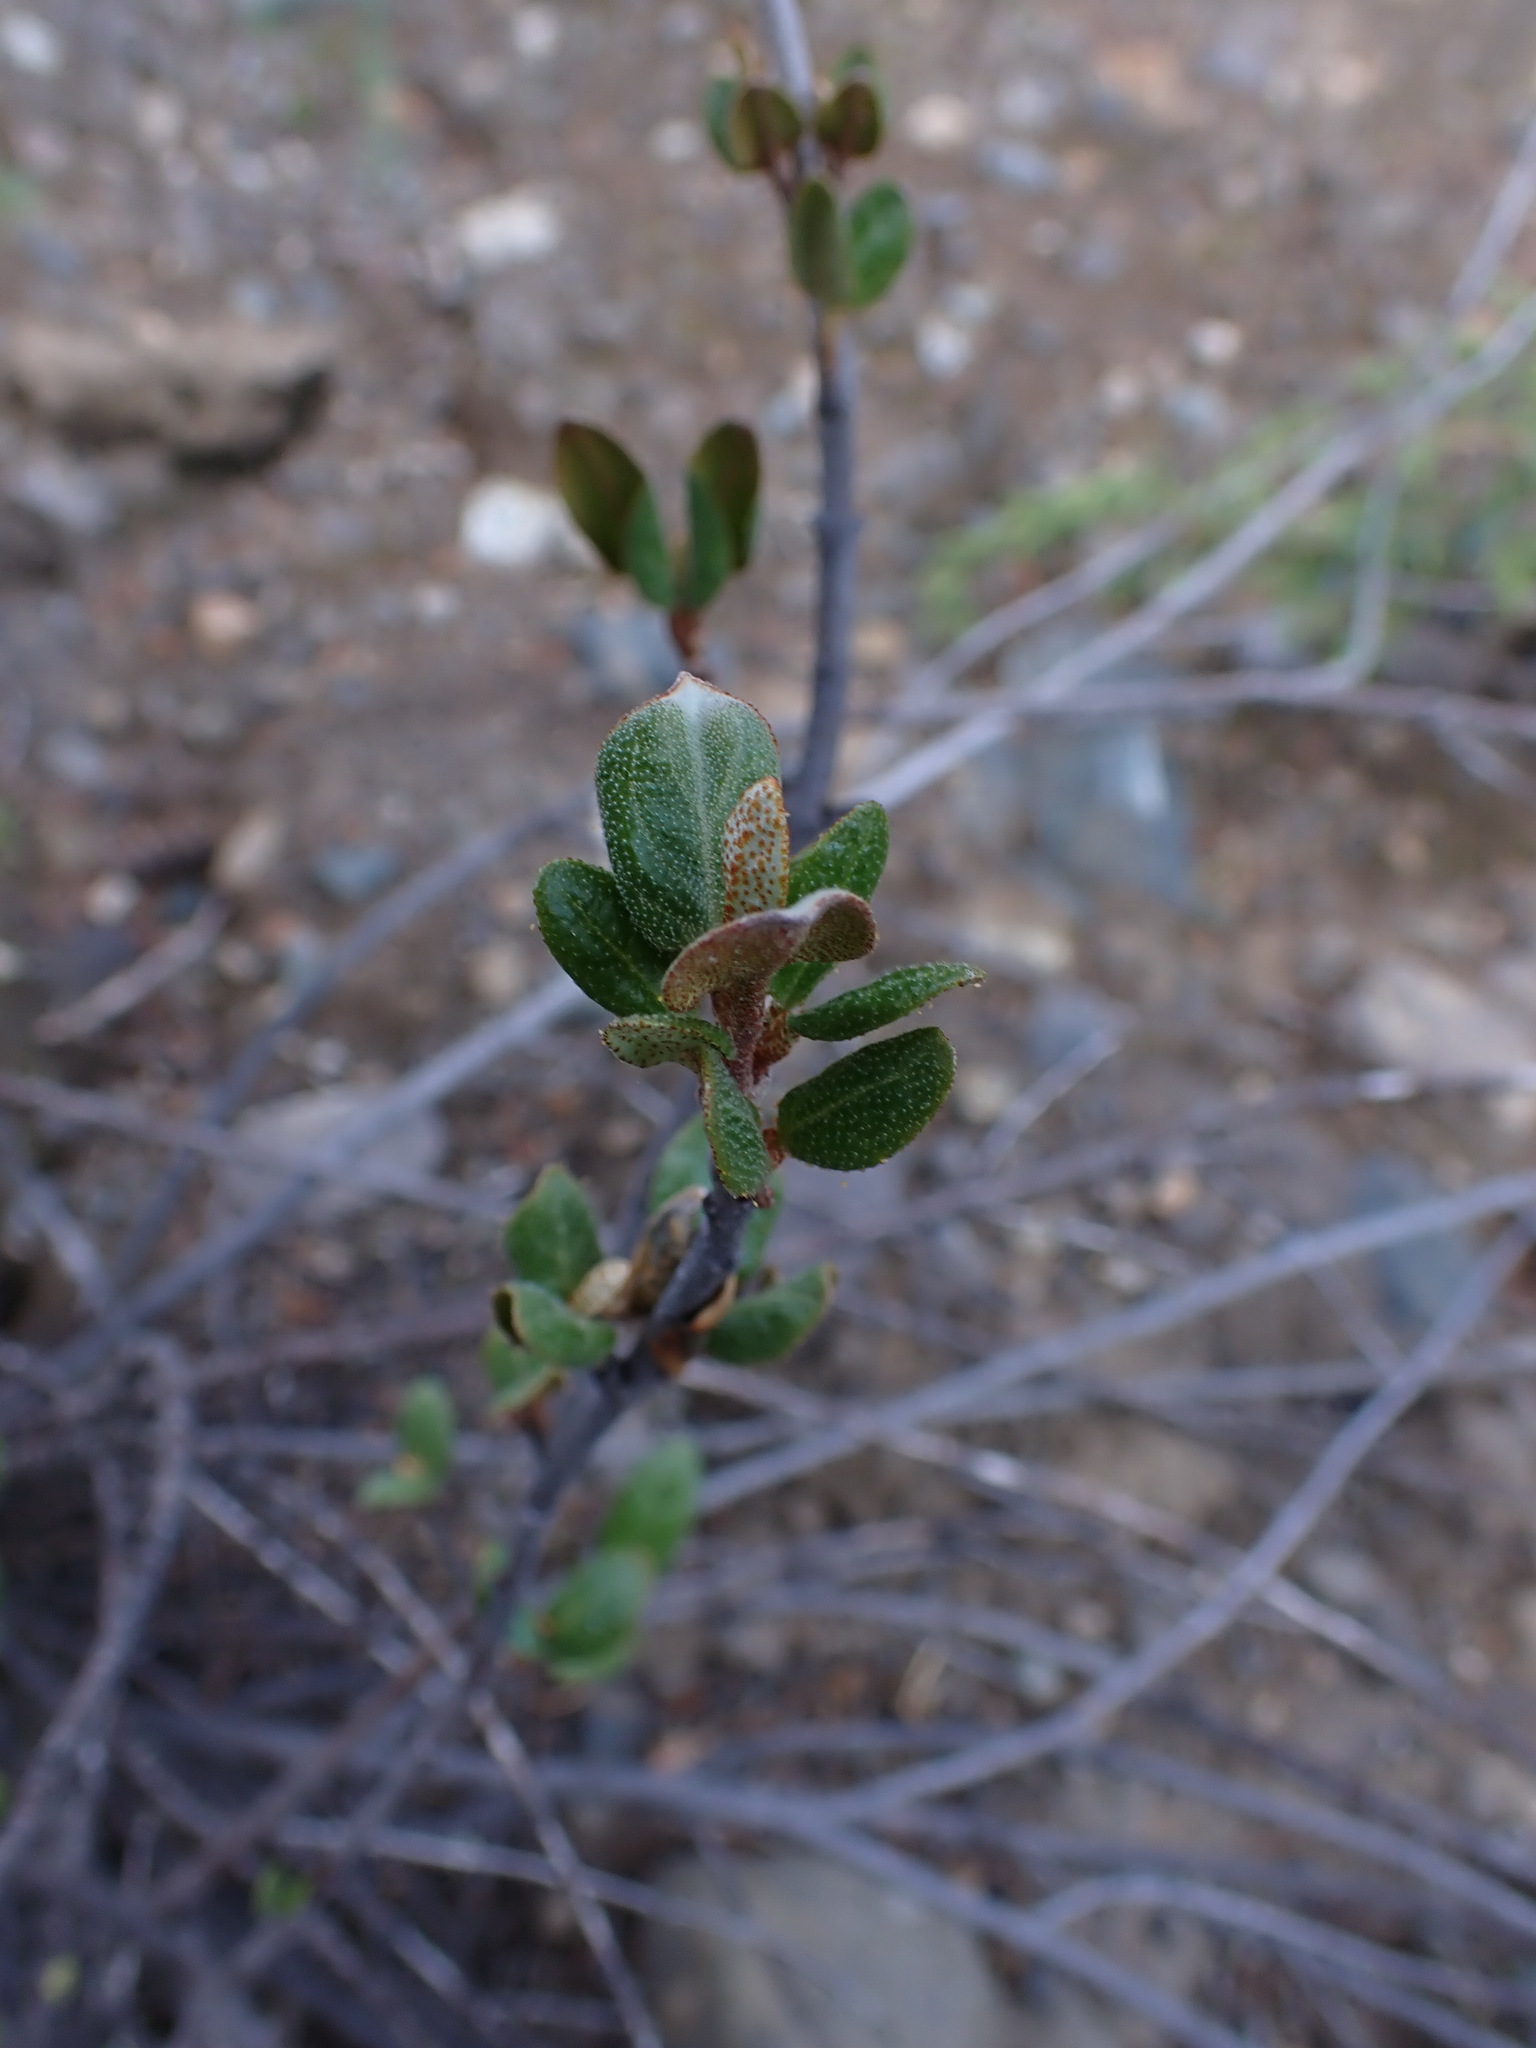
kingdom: Plantae
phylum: Tracheophyta
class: Magnoliopsida
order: Rosales
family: Elaeagnaceae
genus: Shepherdia
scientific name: Shepherdia canadensis
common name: Soapberry
